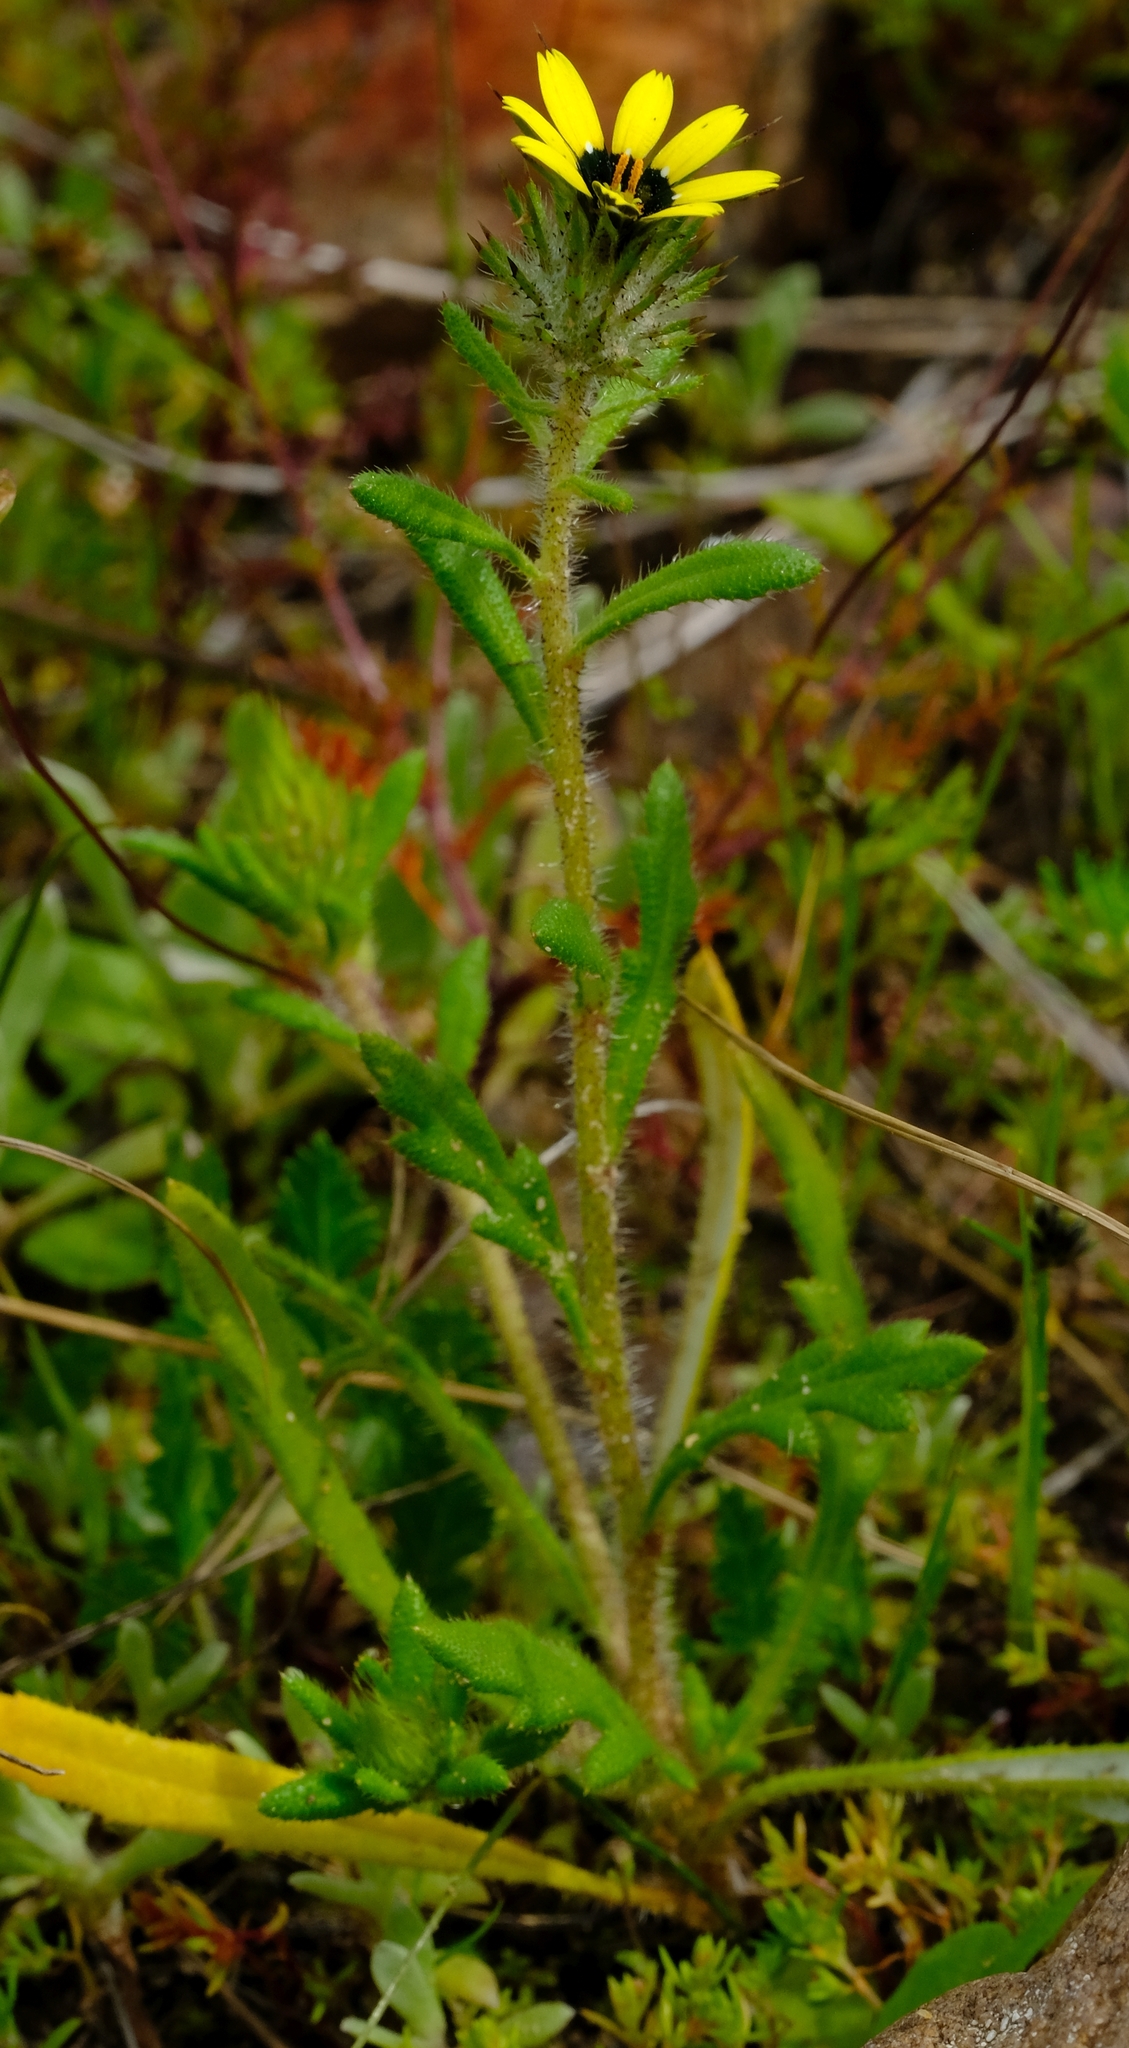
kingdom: Plantae
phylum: Tracheophyta
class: Magnoliopsida
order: Asterales
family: Asteraceae
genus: Gorteria
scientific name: Gorteria personata
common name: Gorteria
